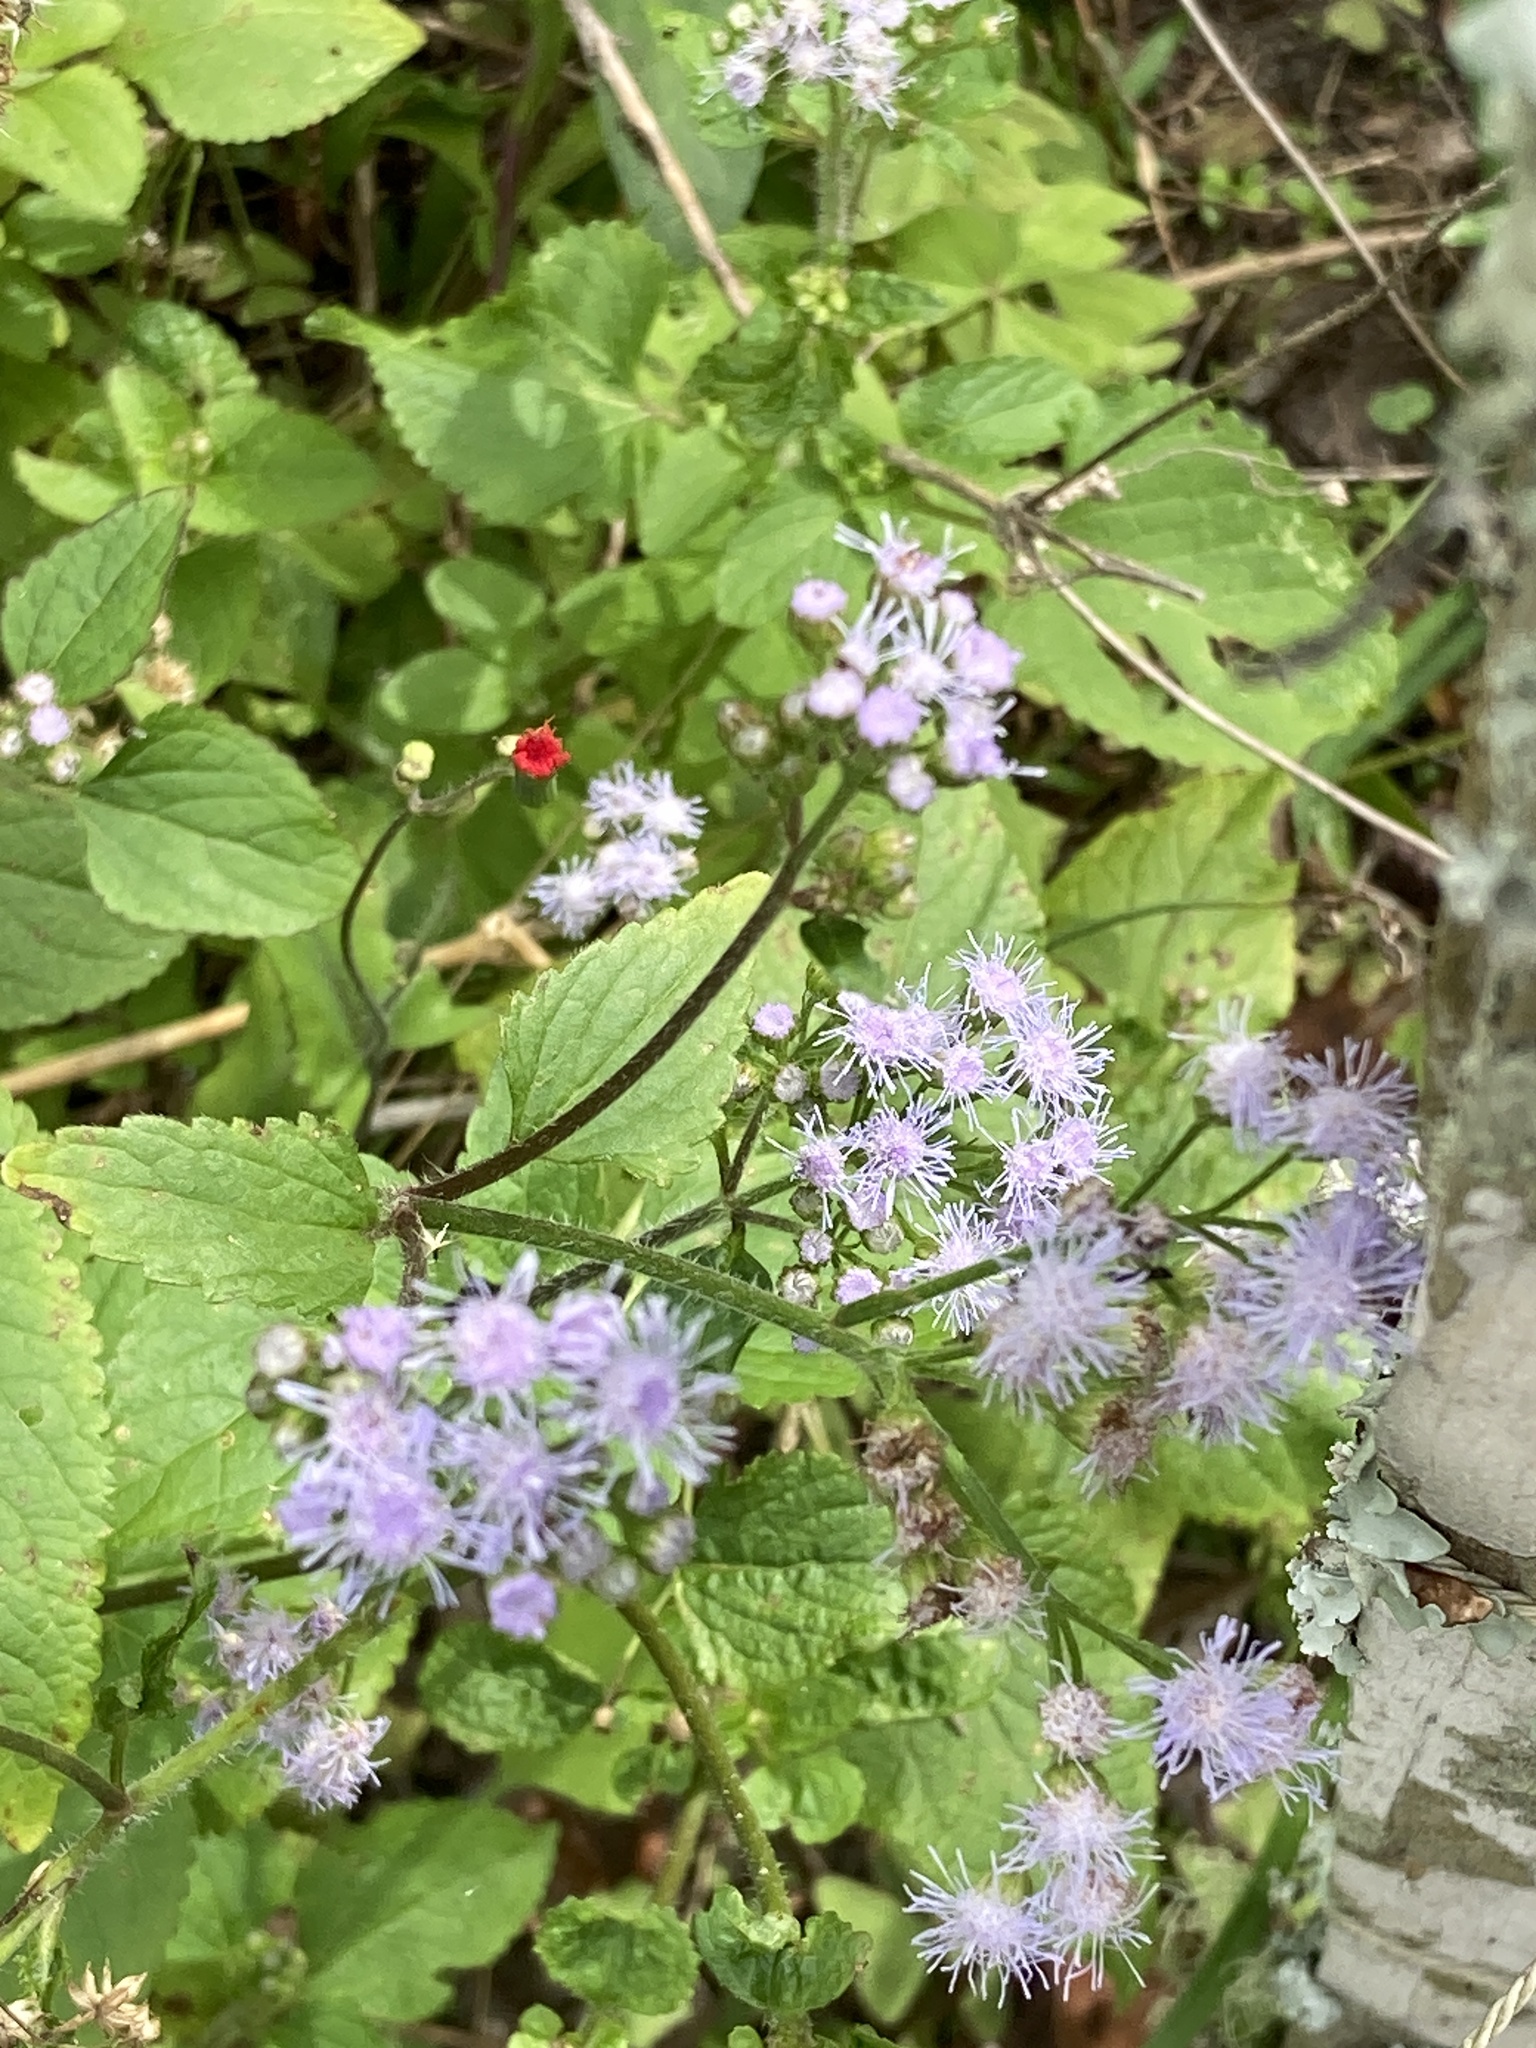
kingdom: Plantae
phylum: Tracheophyta
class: Magnoliopsida
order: Asterales
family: Asteraceae
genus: Conoclinium
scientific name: Conoclinium coelestinum
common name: Blue mistflower
